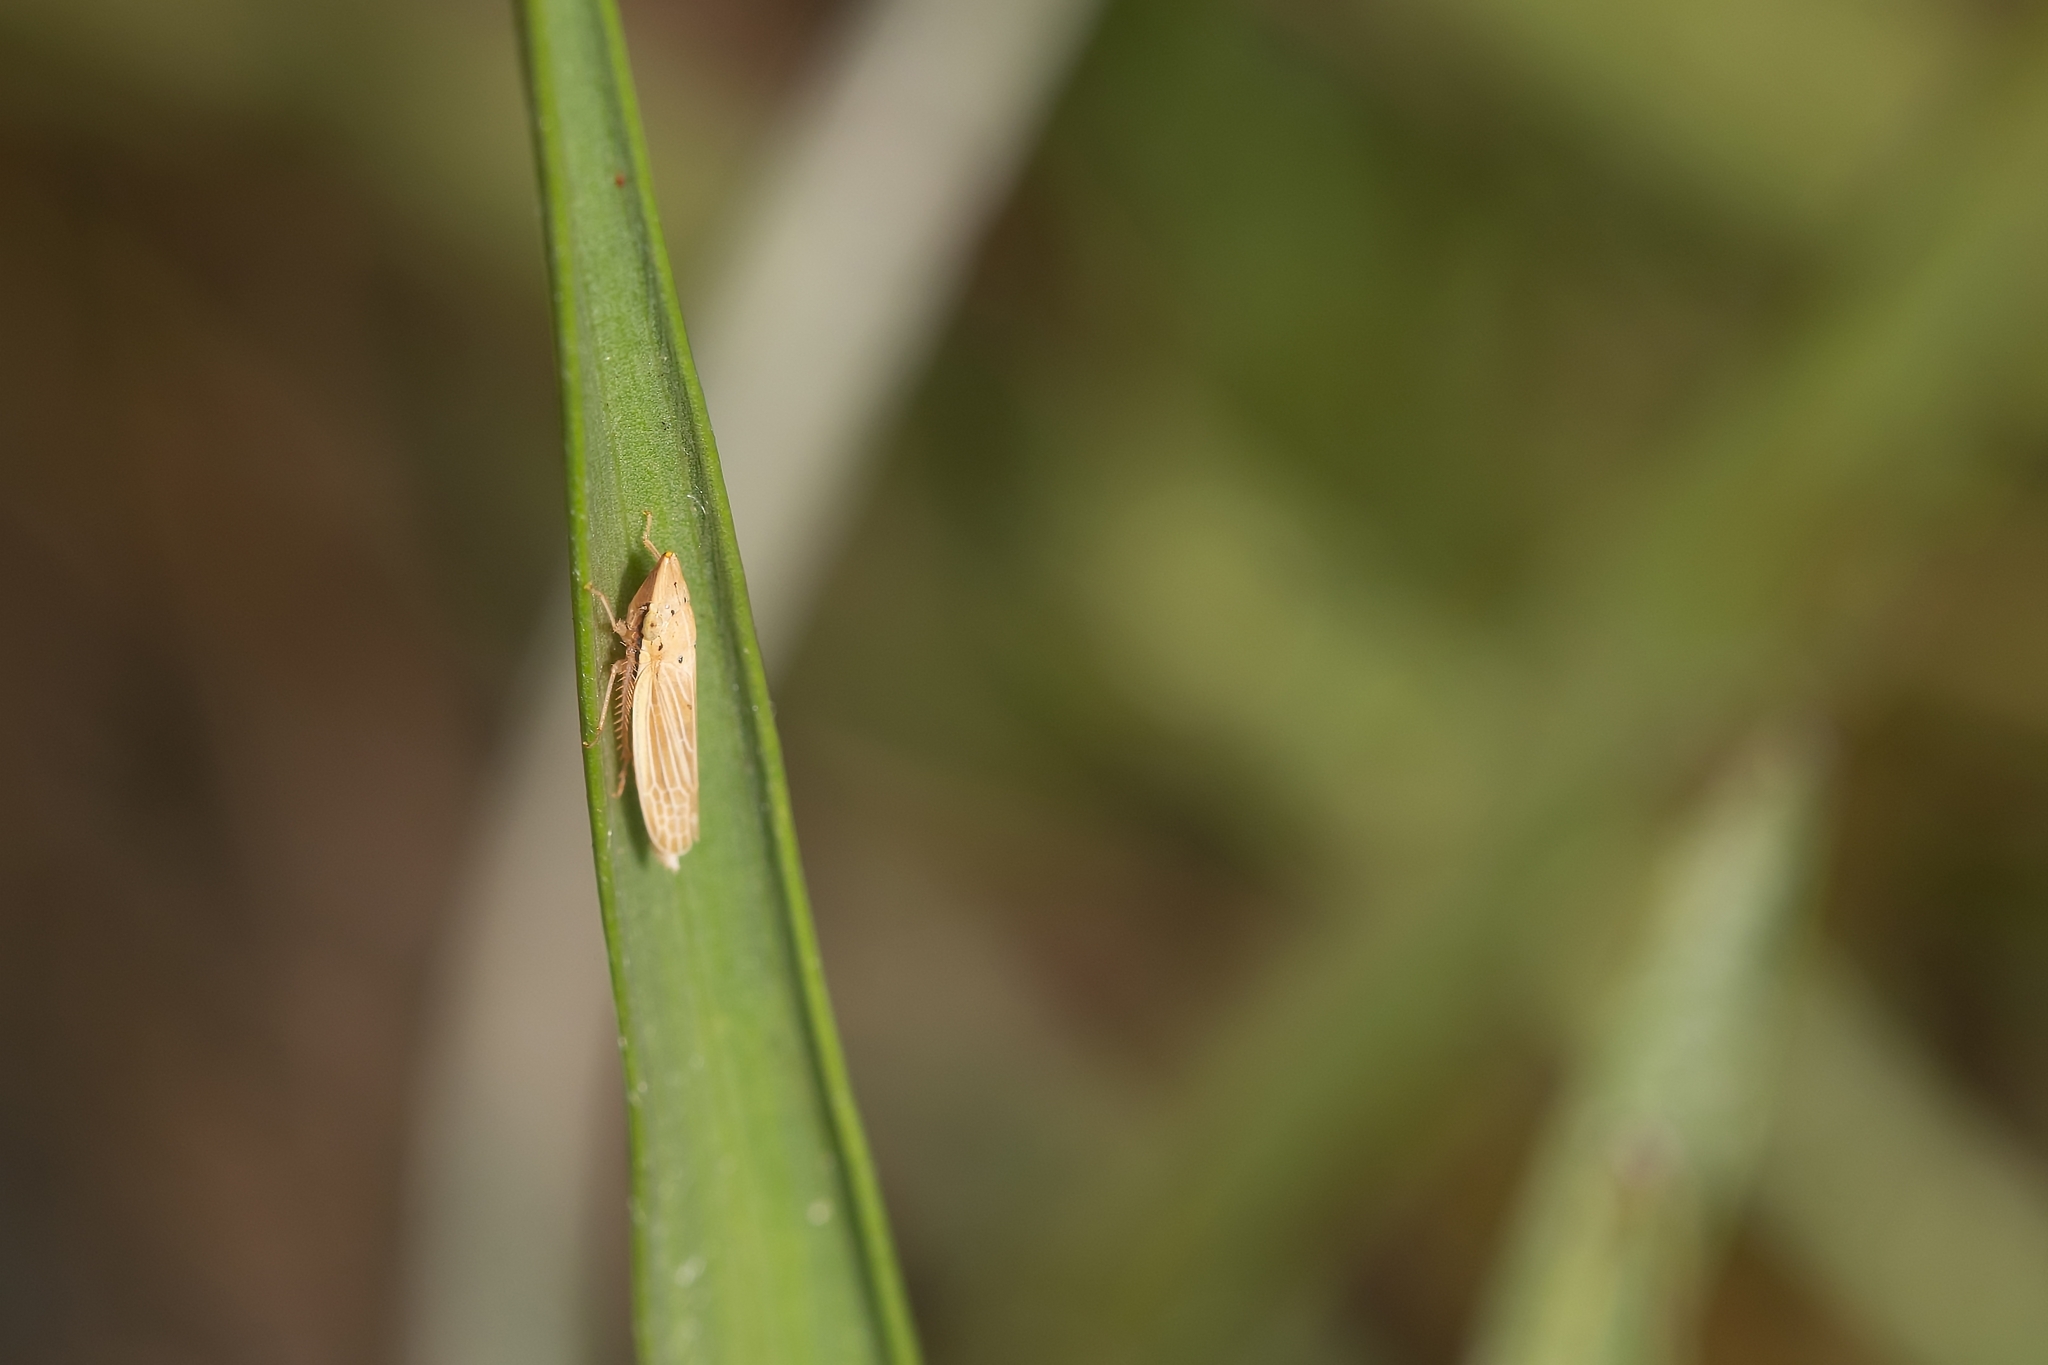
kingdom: Animalia
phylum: Arthropoda
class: Insecta
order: Hemiptera
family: Cicadellidae
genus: Draeculacephala
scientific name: Draeculacephala septemguttata
